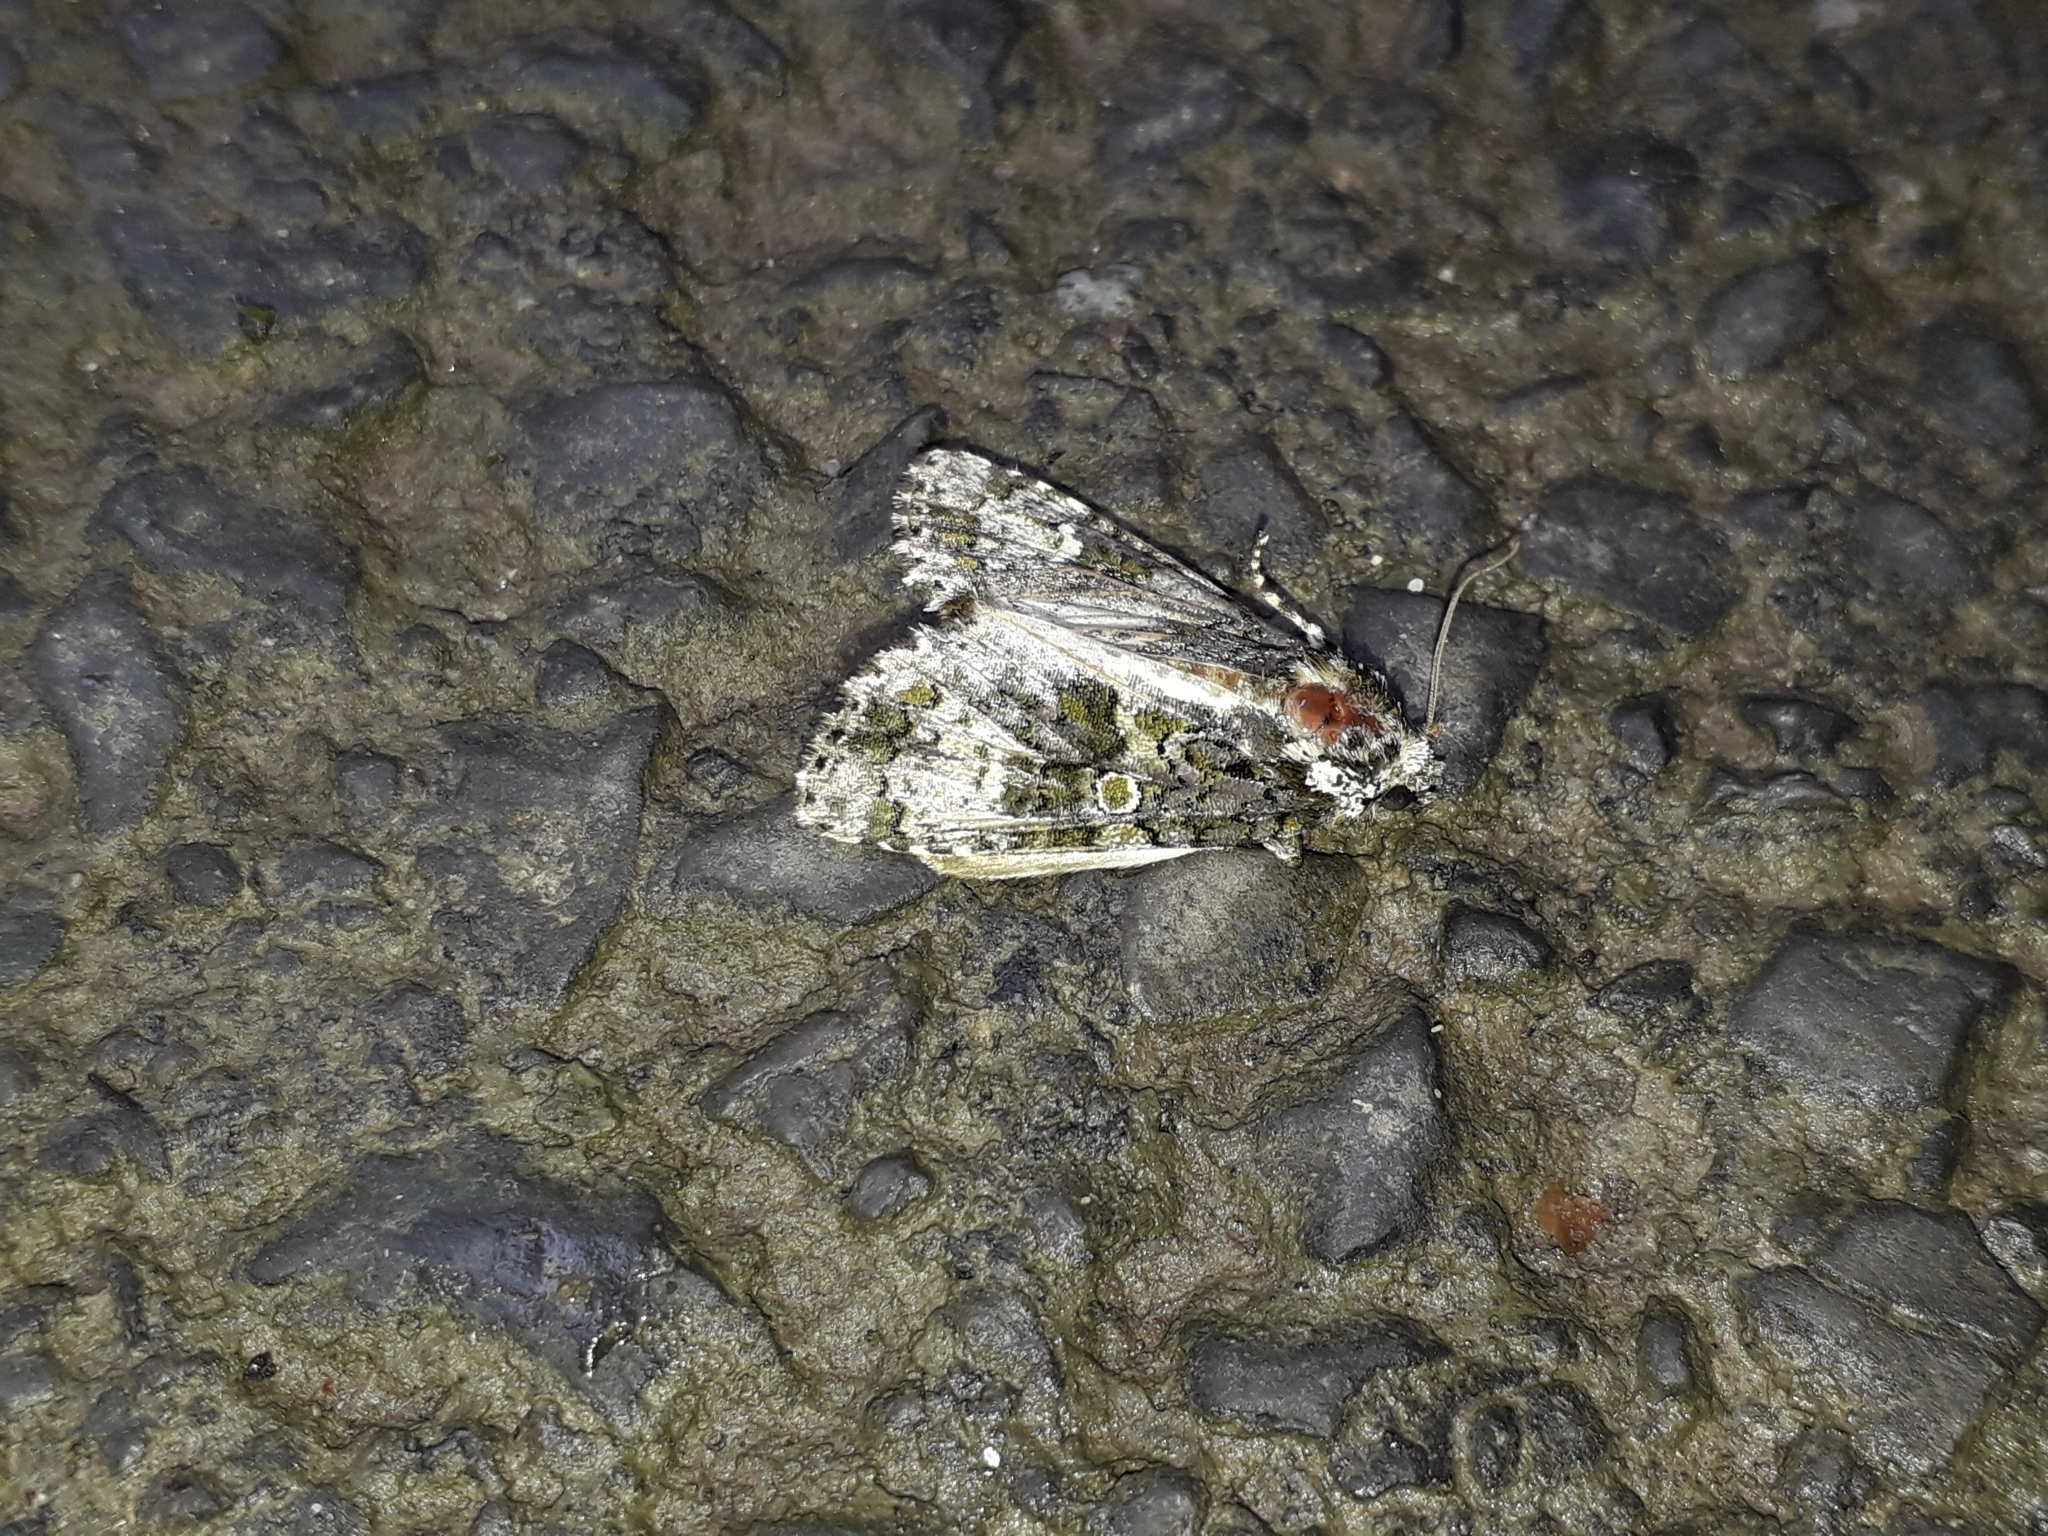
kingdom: Animalia
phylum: Arthropoda
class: Insecta
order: Lepidoptera
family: Noctuidae
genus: Craniophora
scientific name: Craniophora ligustri
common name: Coronet
